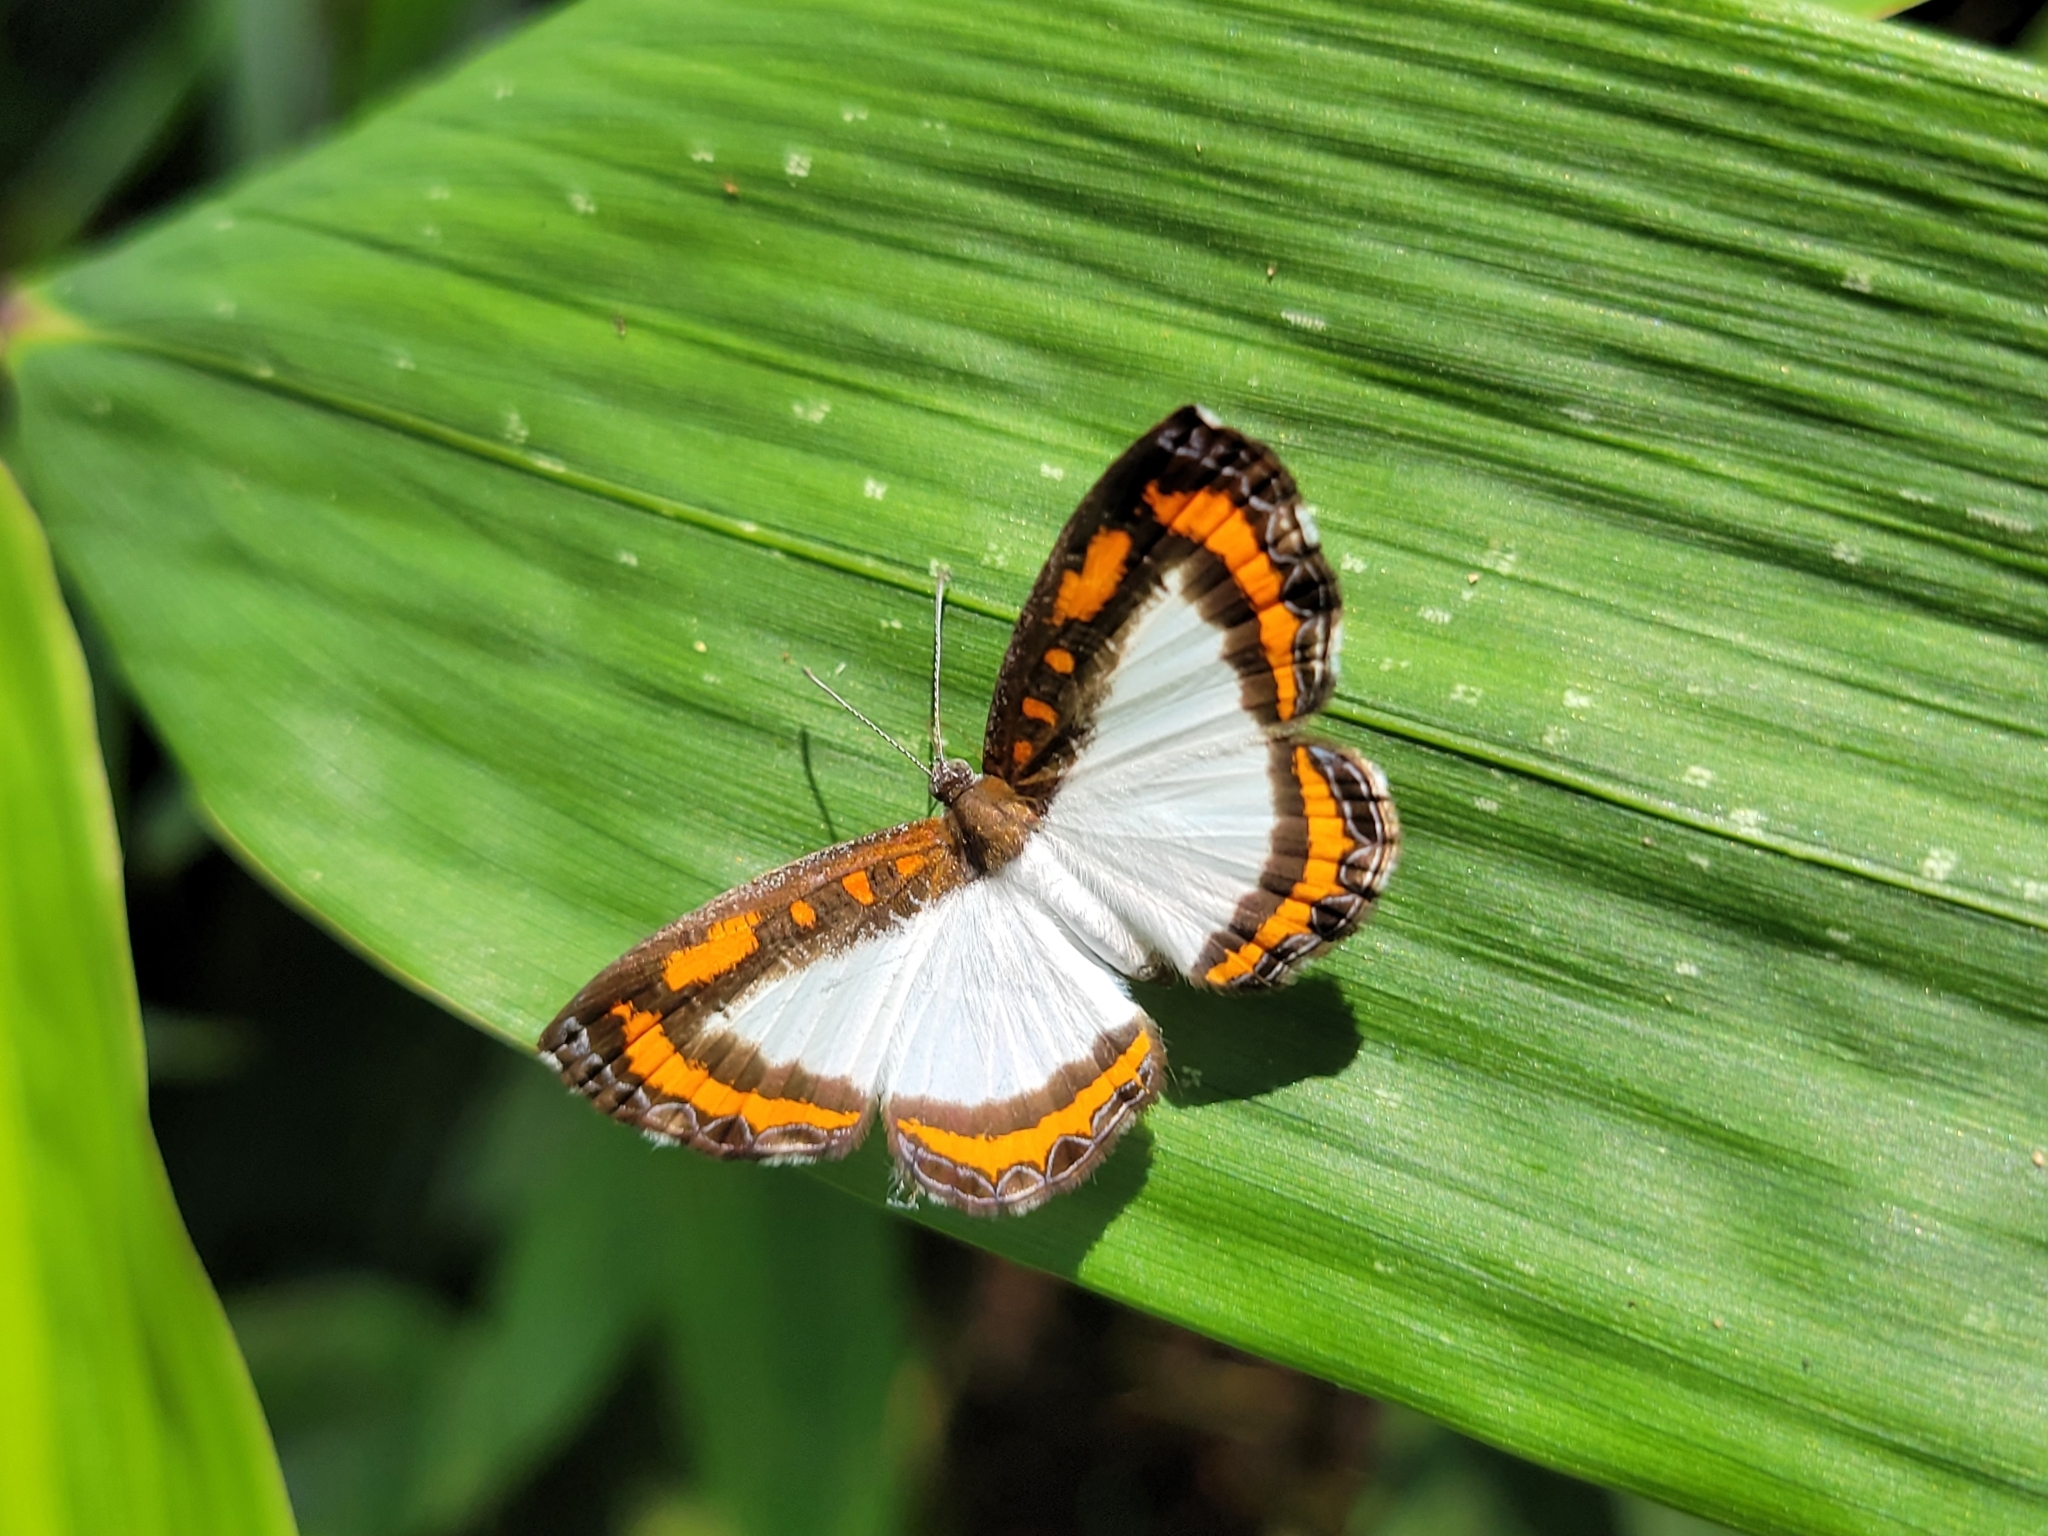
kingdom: Animalia
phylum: Arthropoda
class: Insecta
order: Lepidoptera
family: Riodinidae
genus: Nymula
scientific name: Nymula calyce
